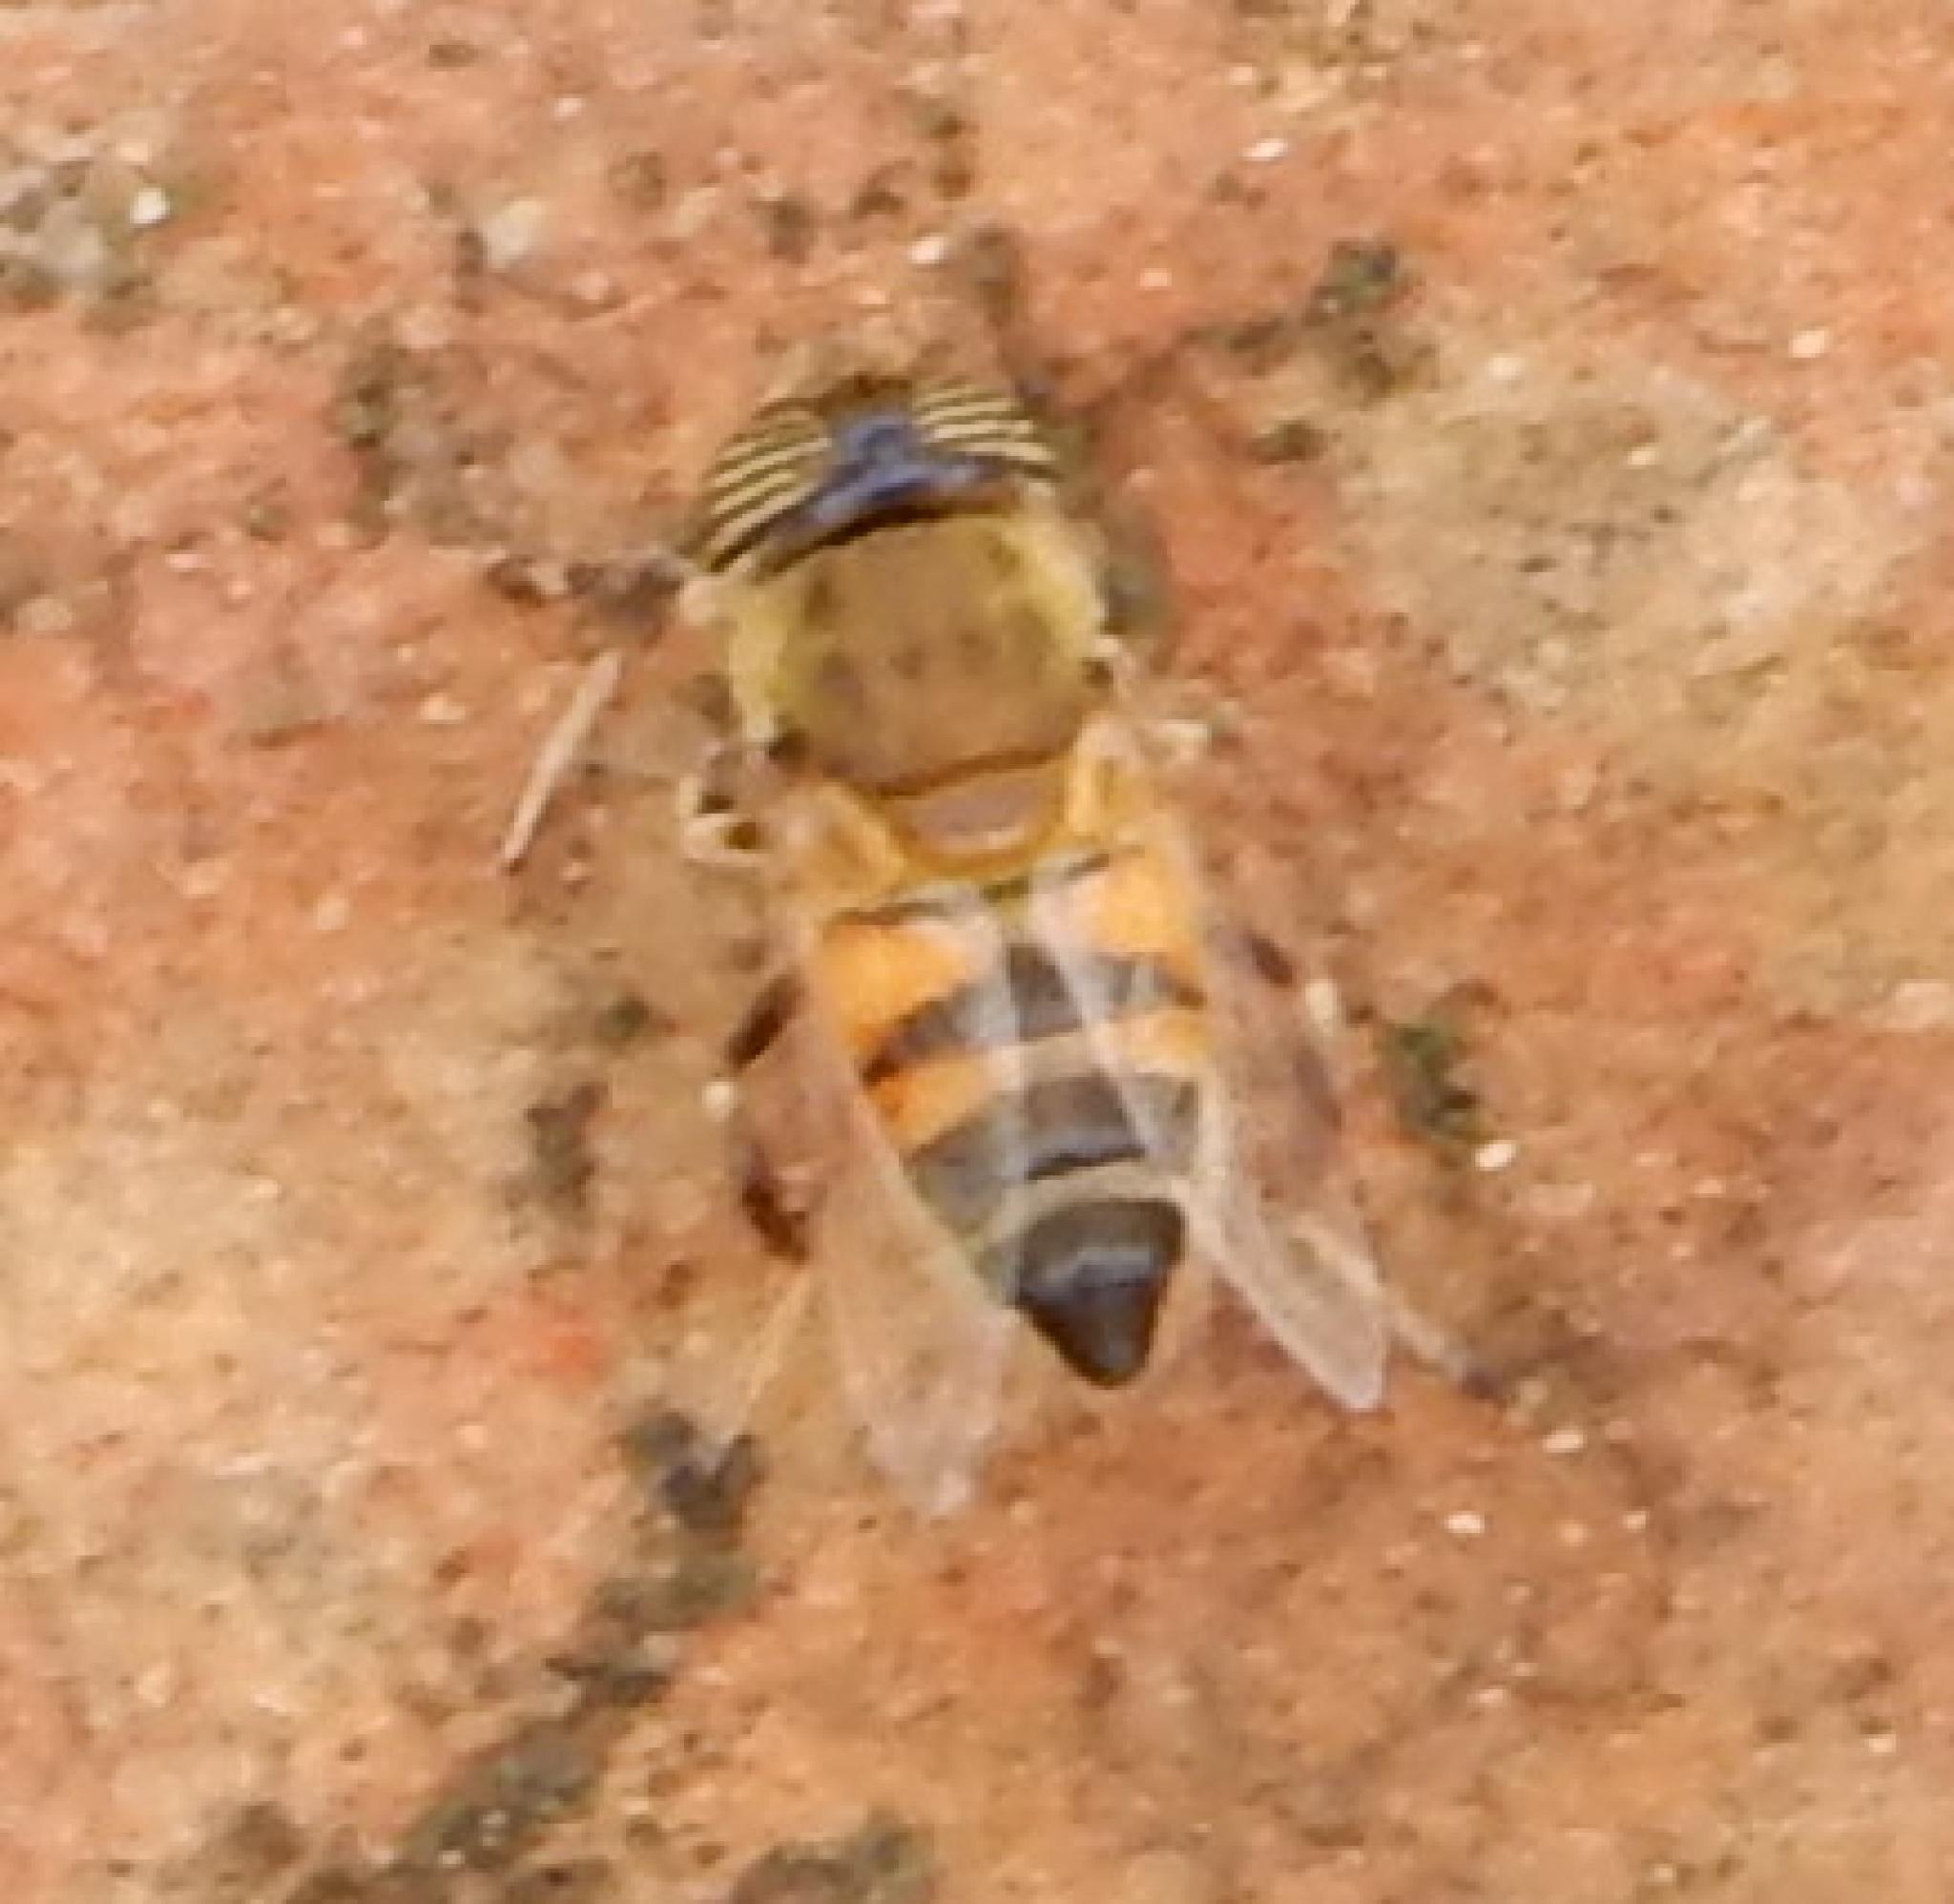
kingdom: Animalia
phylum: Arthropoda
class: Insecta
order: Diptera
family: Syrphidae
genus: Eristalinus
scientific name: Eristalinus taeniops
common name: Syrphid fly
